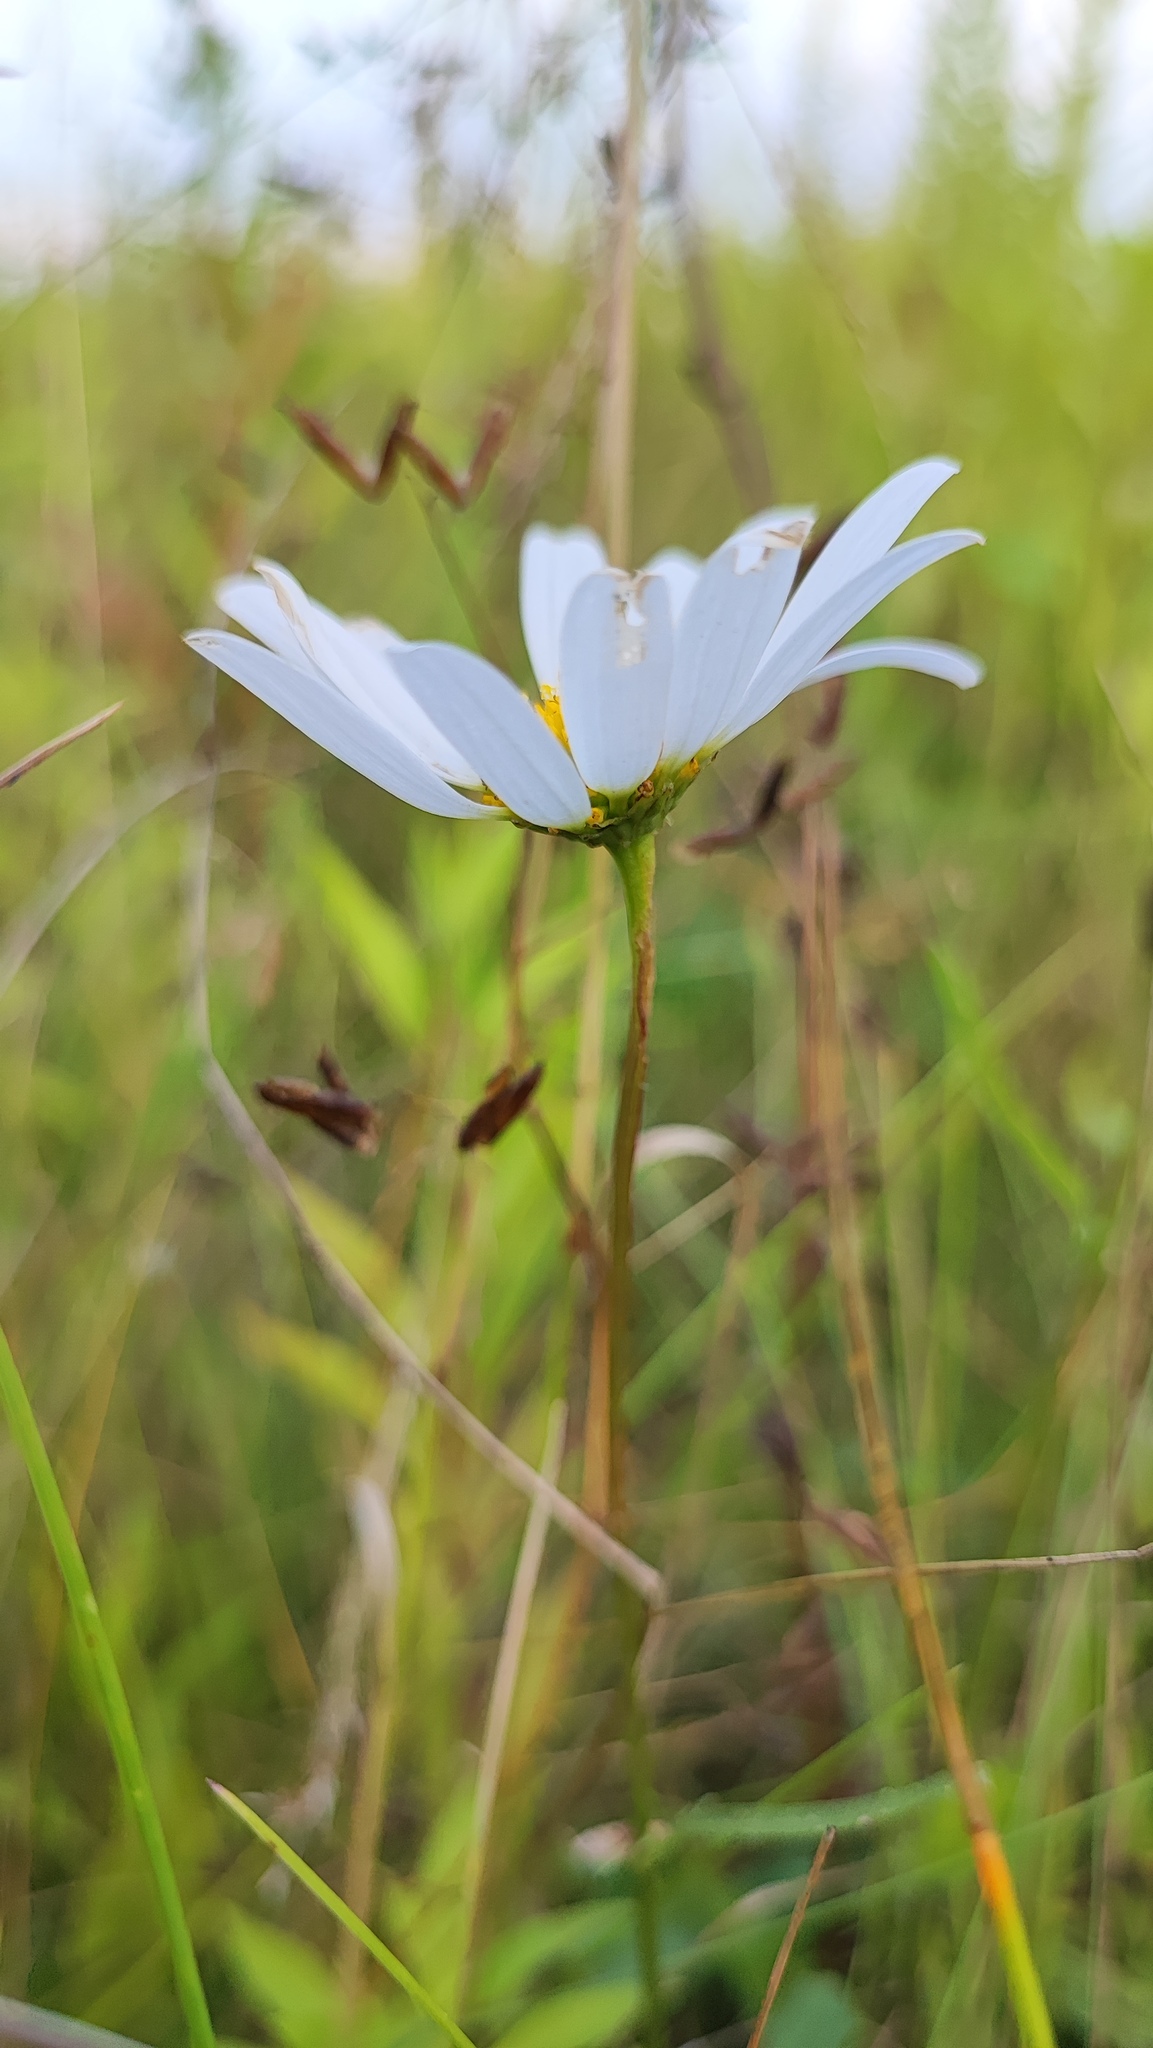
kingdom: Plantae
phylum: Tracheophyta
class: Magnoliopsida
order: Asterales
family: Asteraceae
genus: Leucanthemum
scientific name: Leucanthemum vulgare
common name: Oxeye daisy
